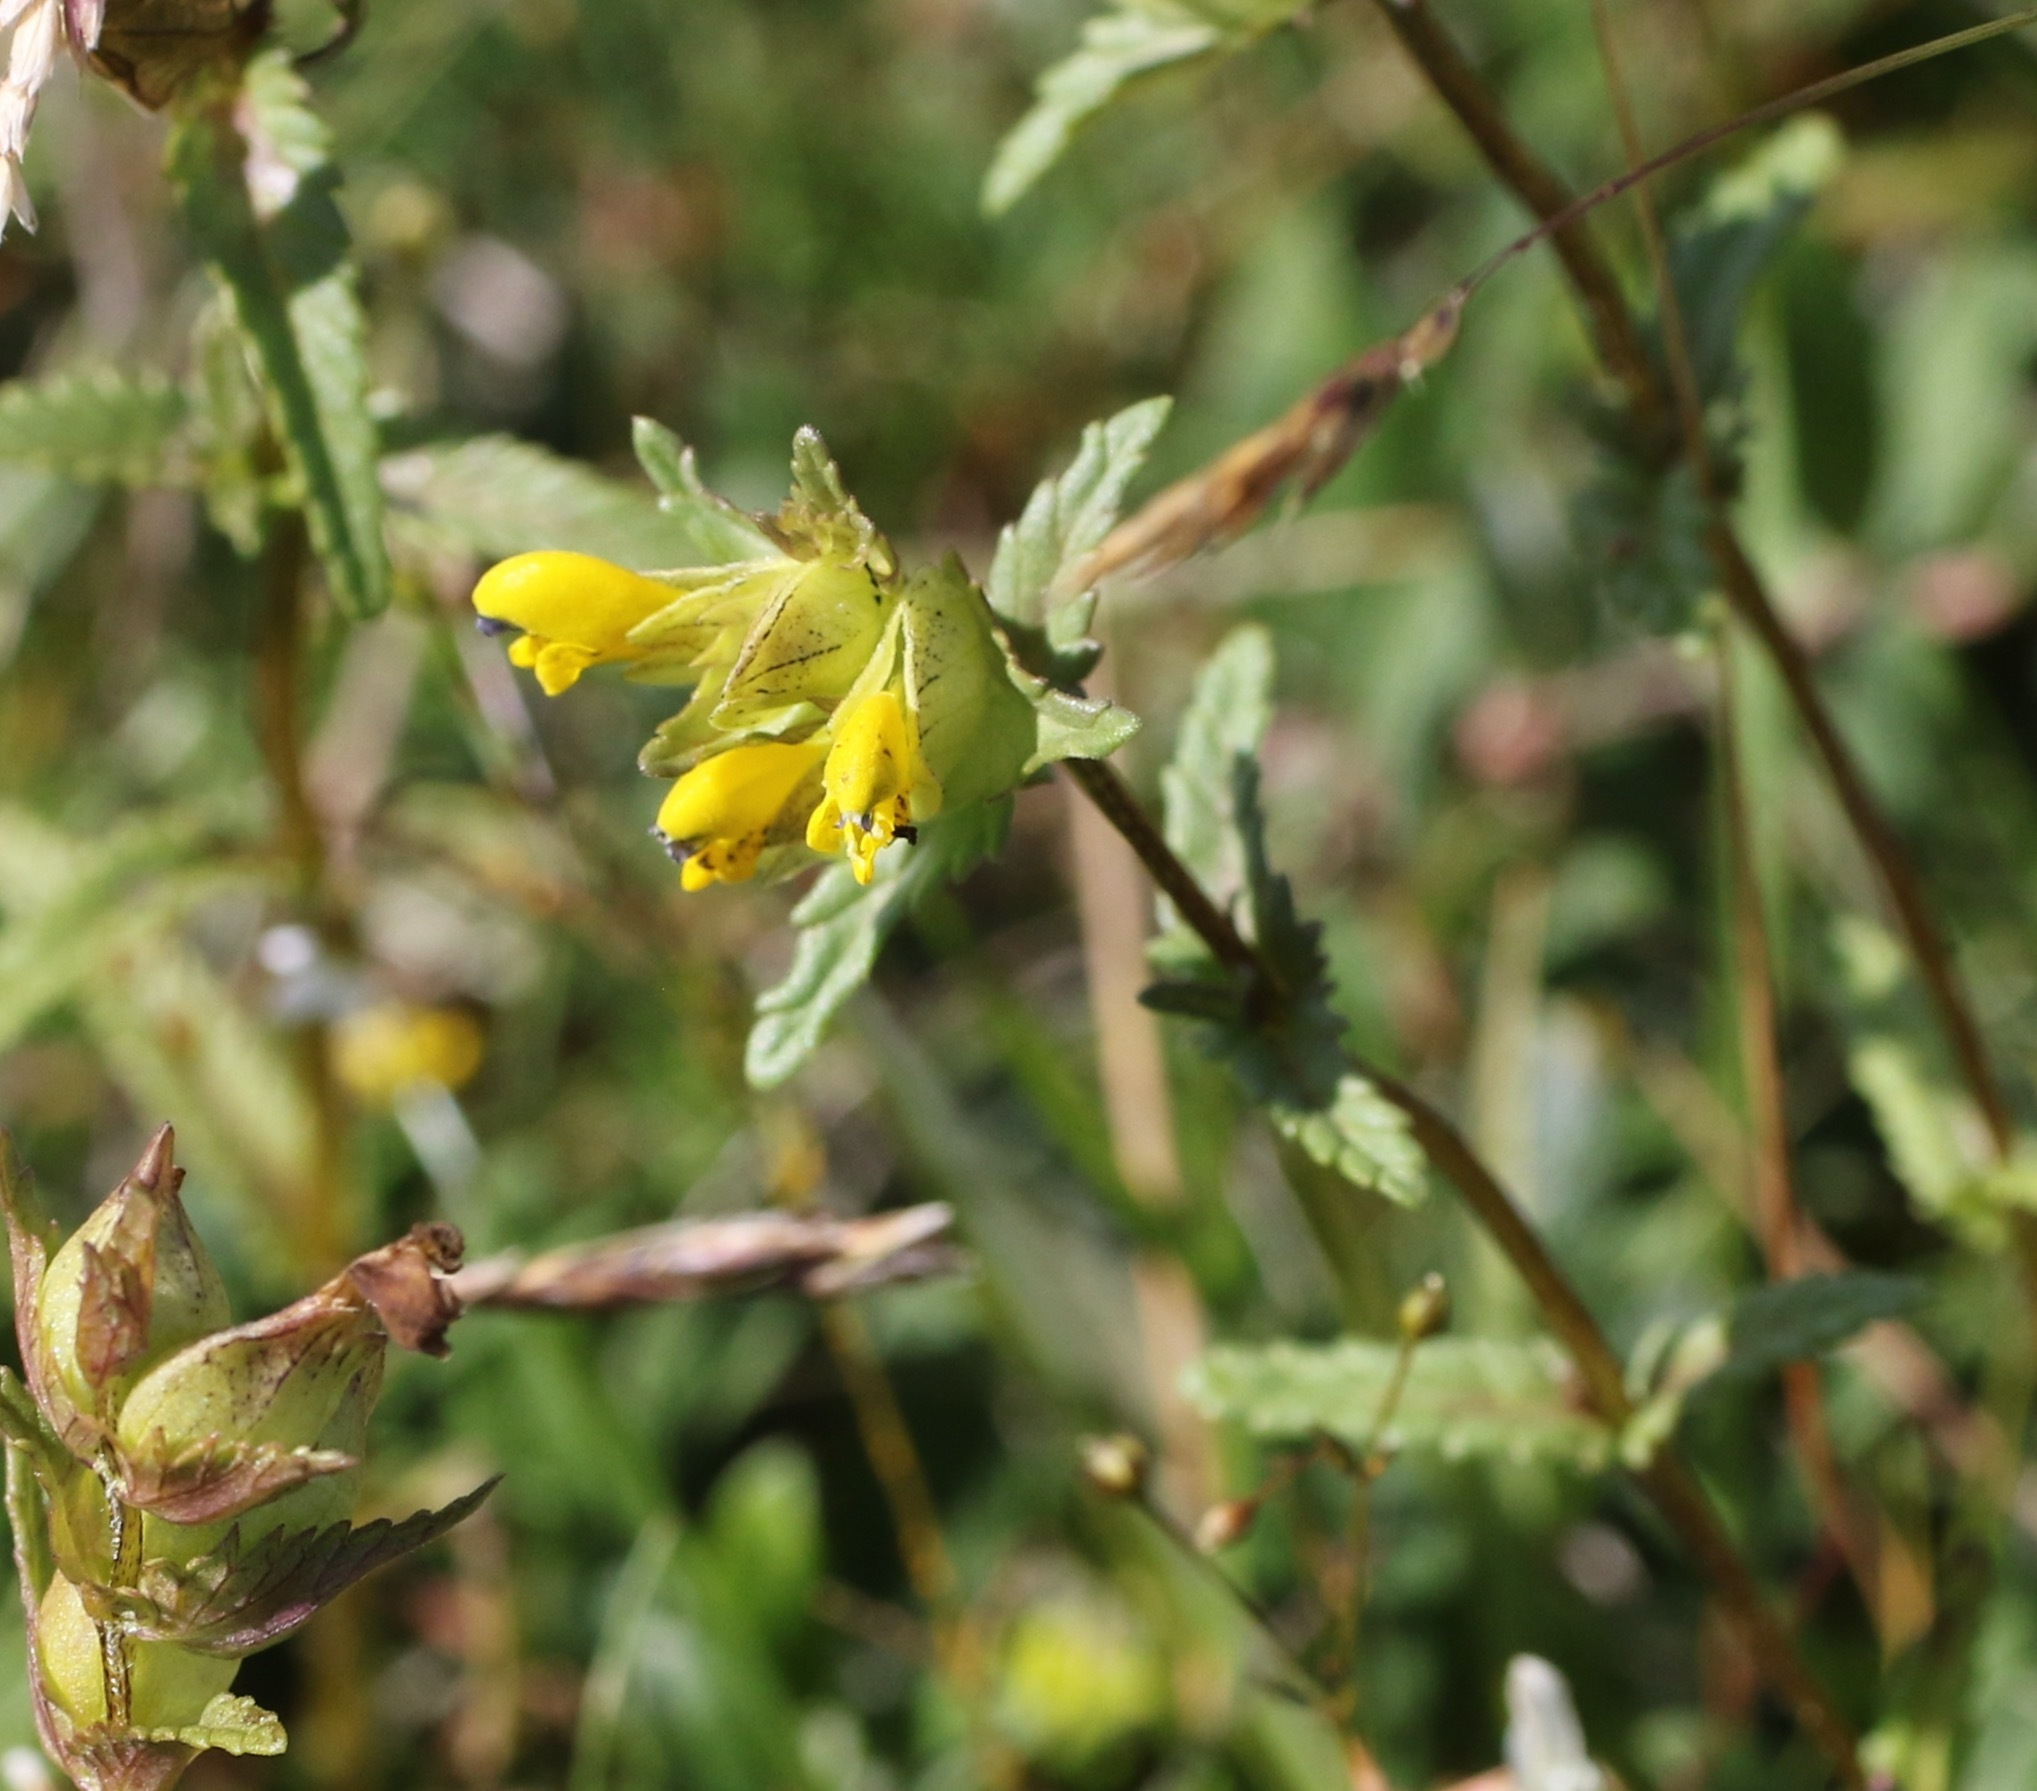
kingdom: Plantae
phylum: Tracheophyta
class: Magnoliopsida
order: Lamiales
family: Orobanchaceae
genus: Rhinanthus
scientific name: Rhinanthus minor
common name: Yellow-rattle
